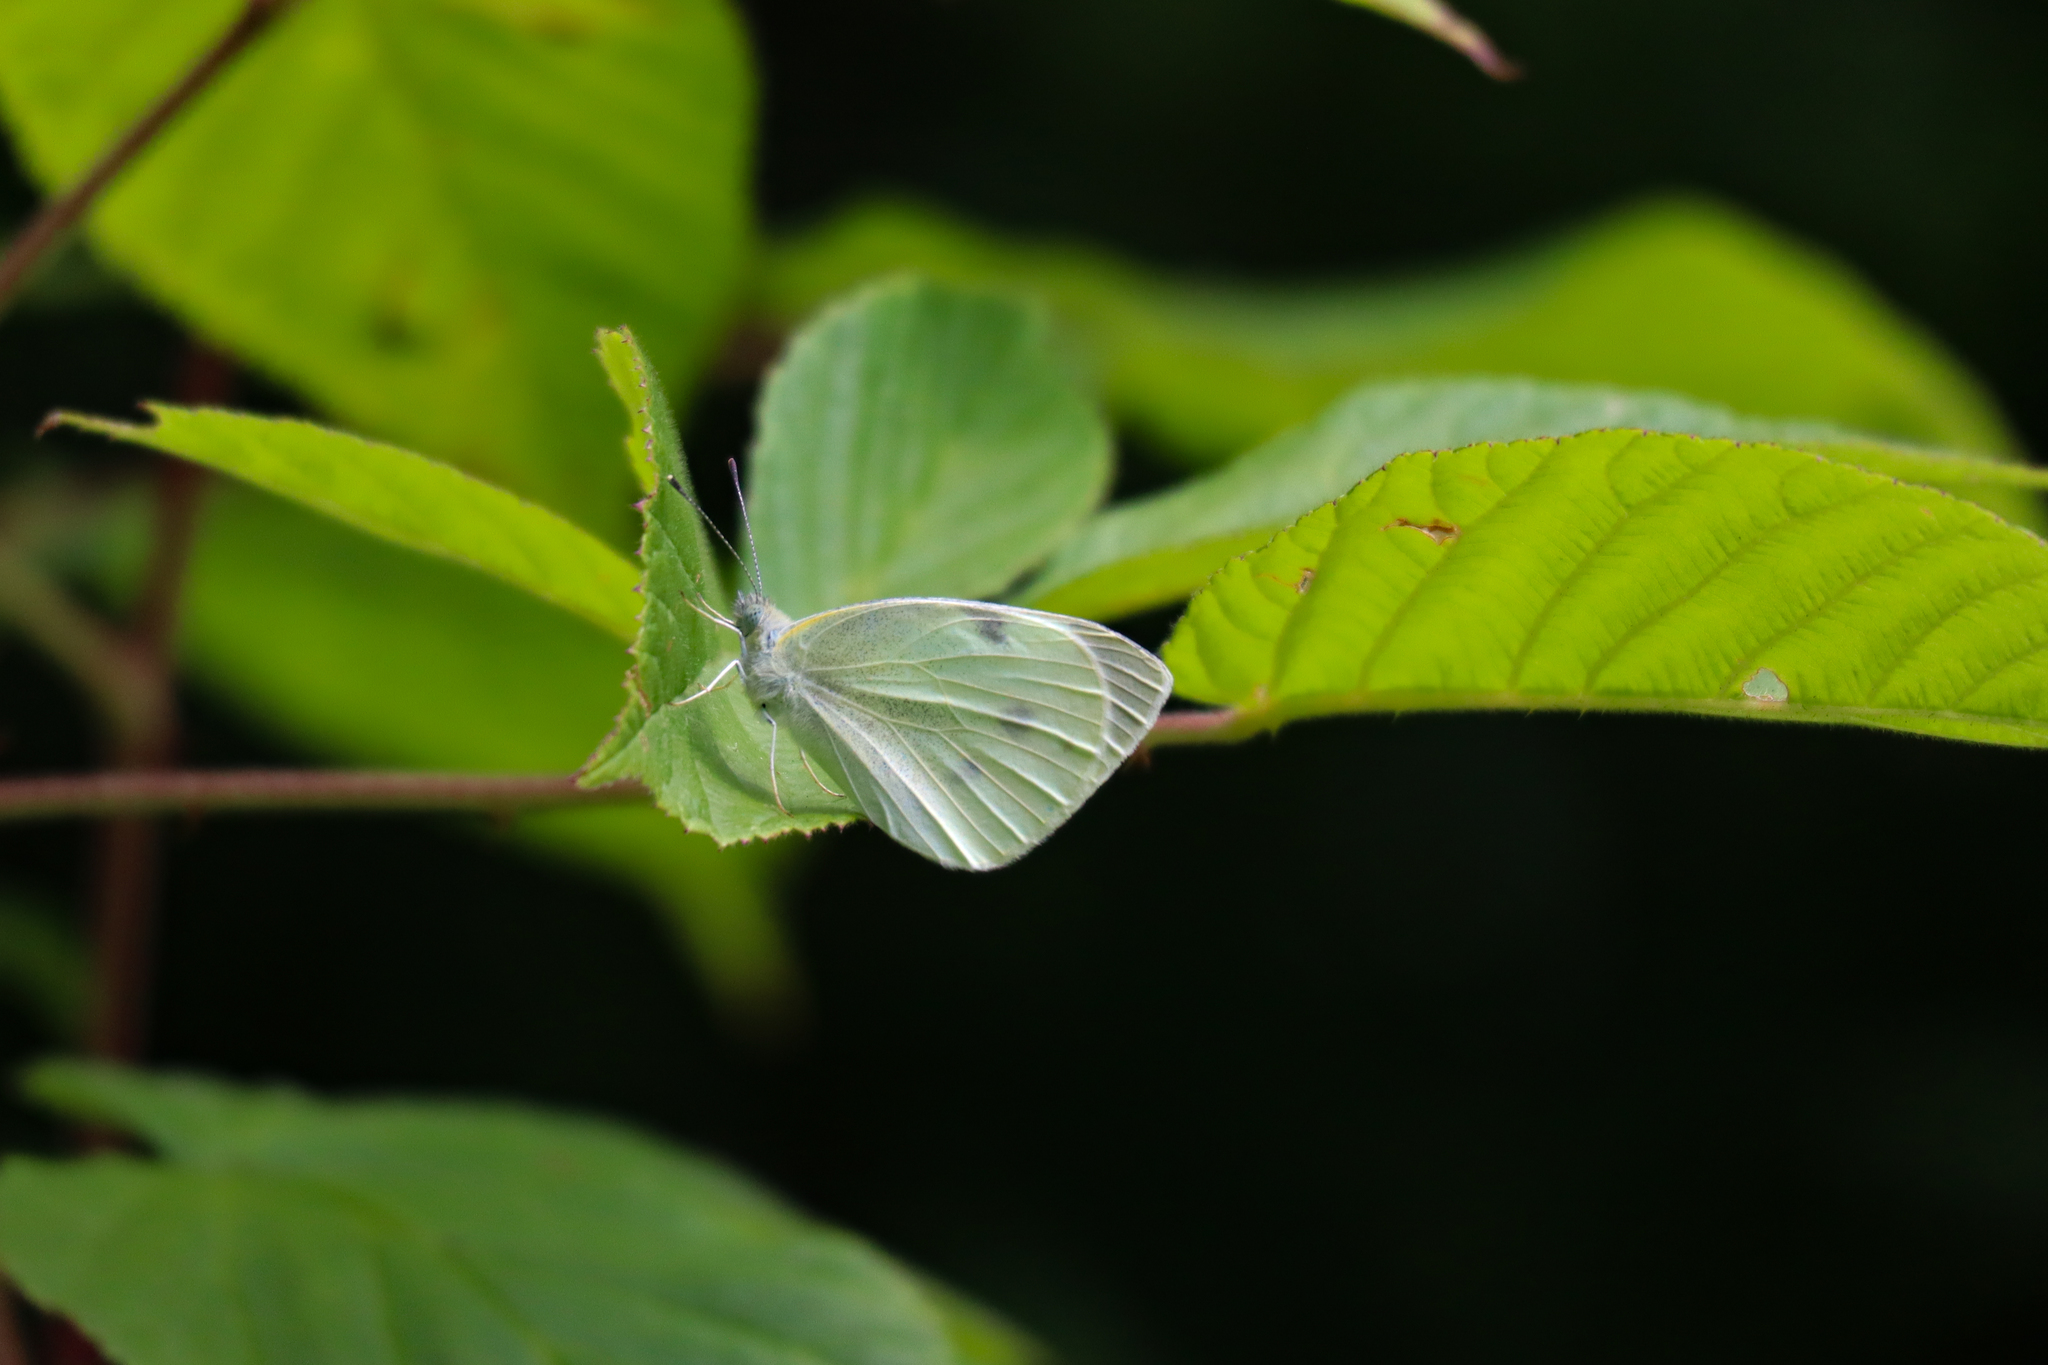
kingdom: Animalia
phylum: Arthropoda
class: Insecta
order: Lepidoptera
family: Pieridae
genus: Pieris
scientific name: Pieris rapae
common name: Small white
